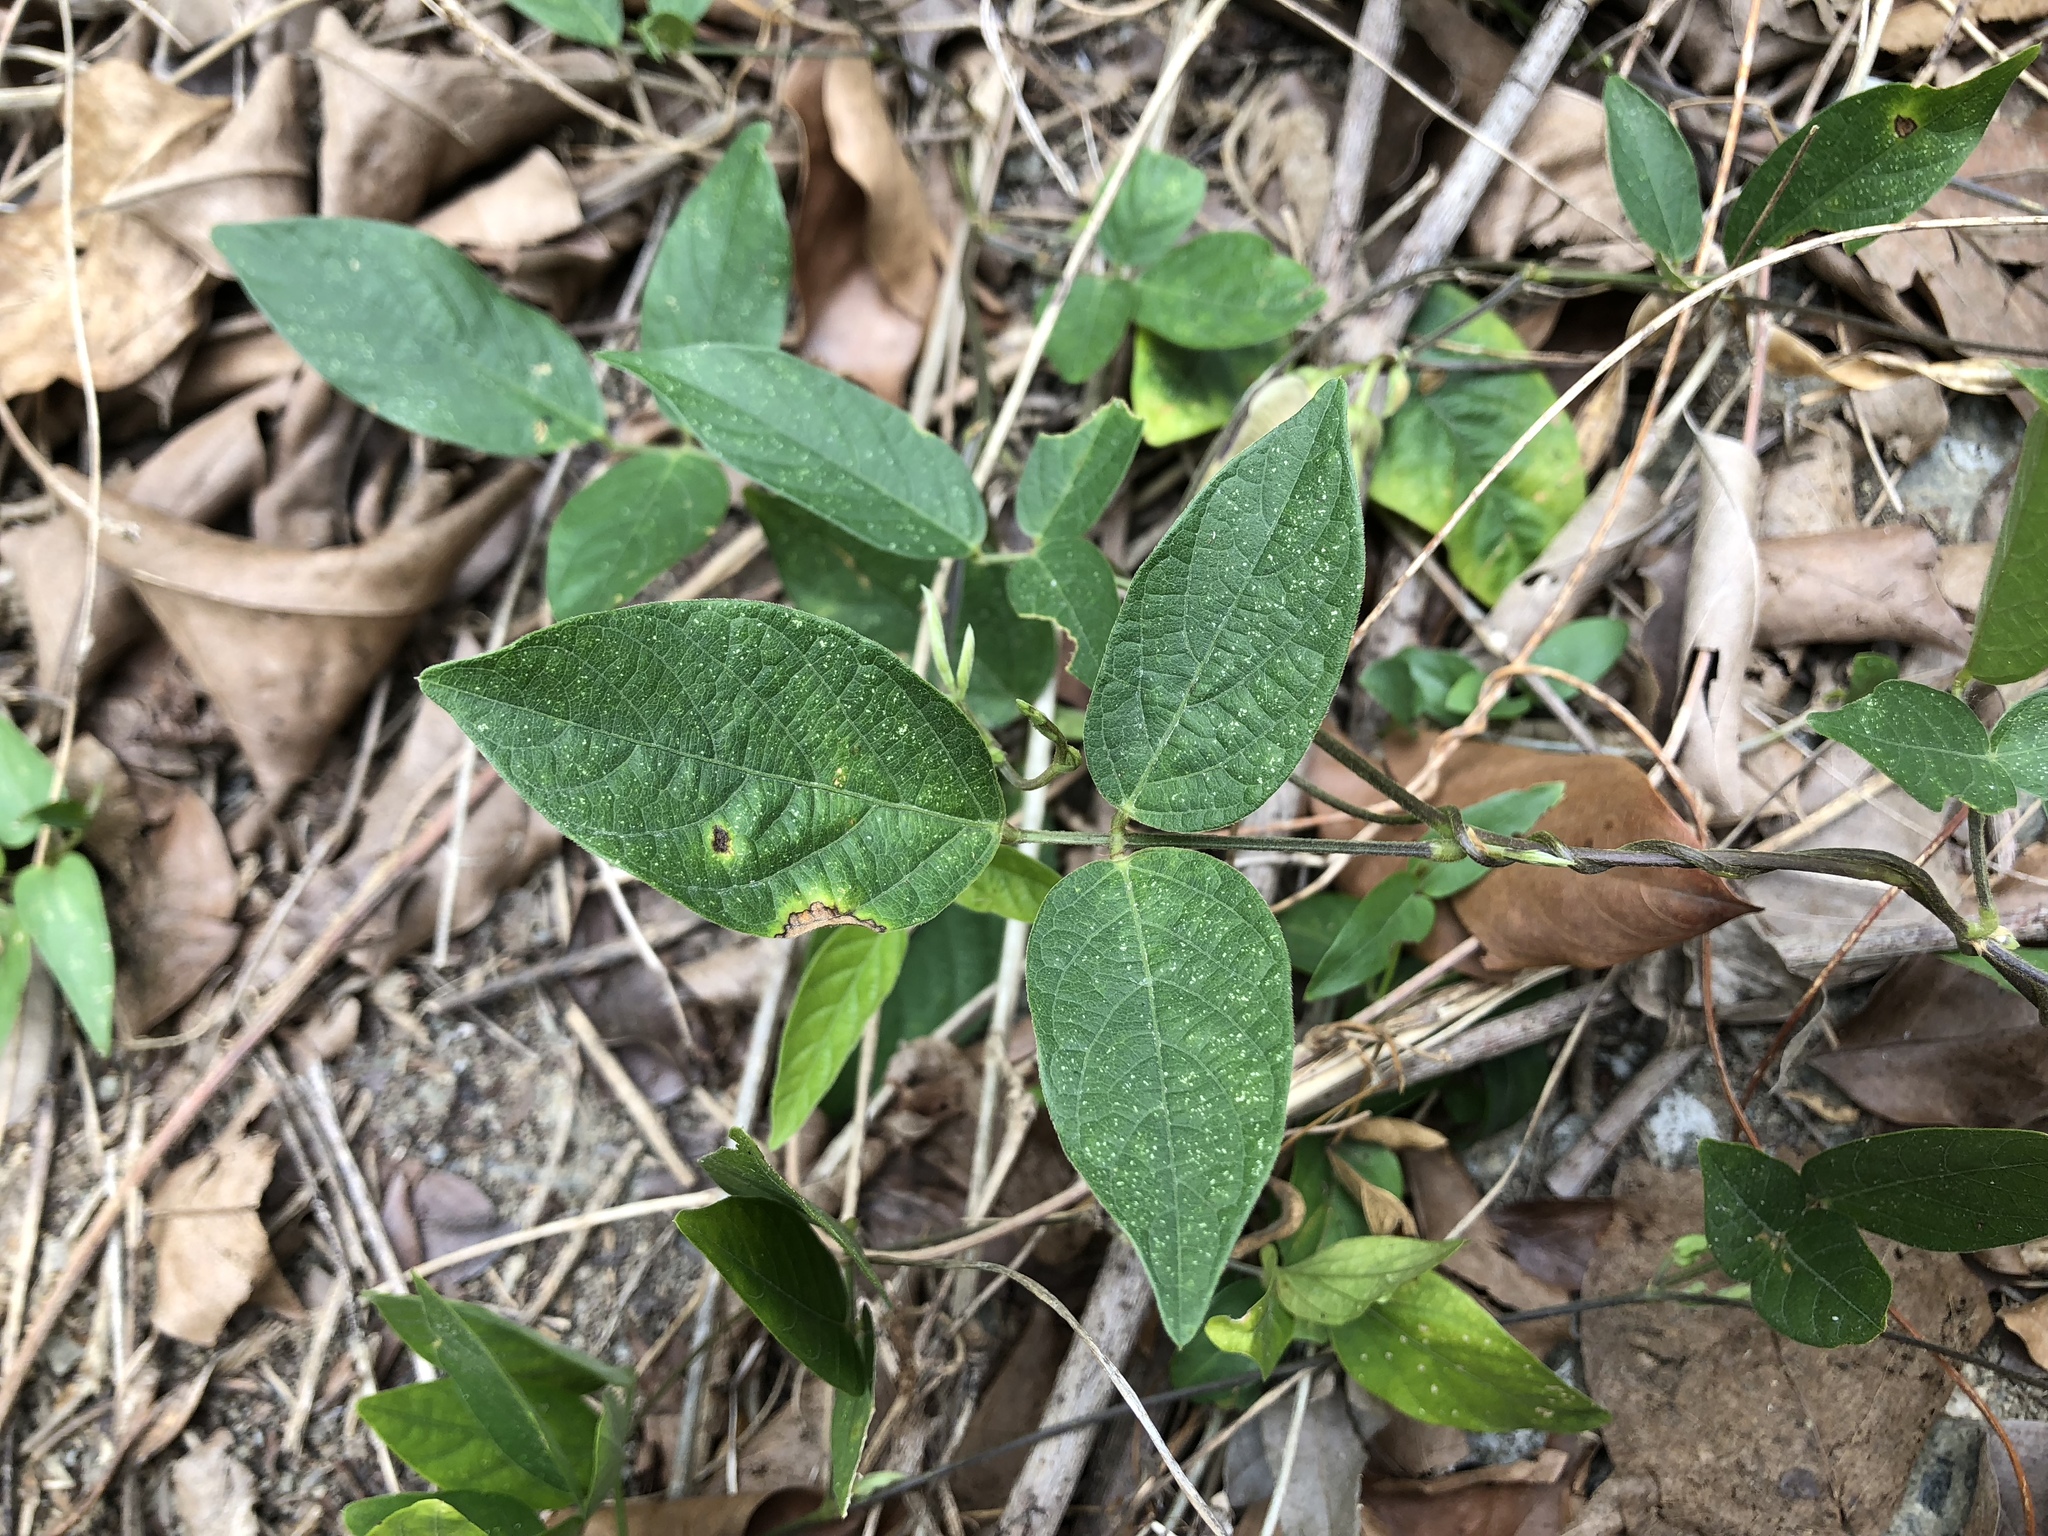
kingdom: Plantae
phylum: Tracheophyta
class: Magnoliopsida
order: Fabales
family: Fabaceae
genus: Centrosema
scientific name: Centrosema pubescens
